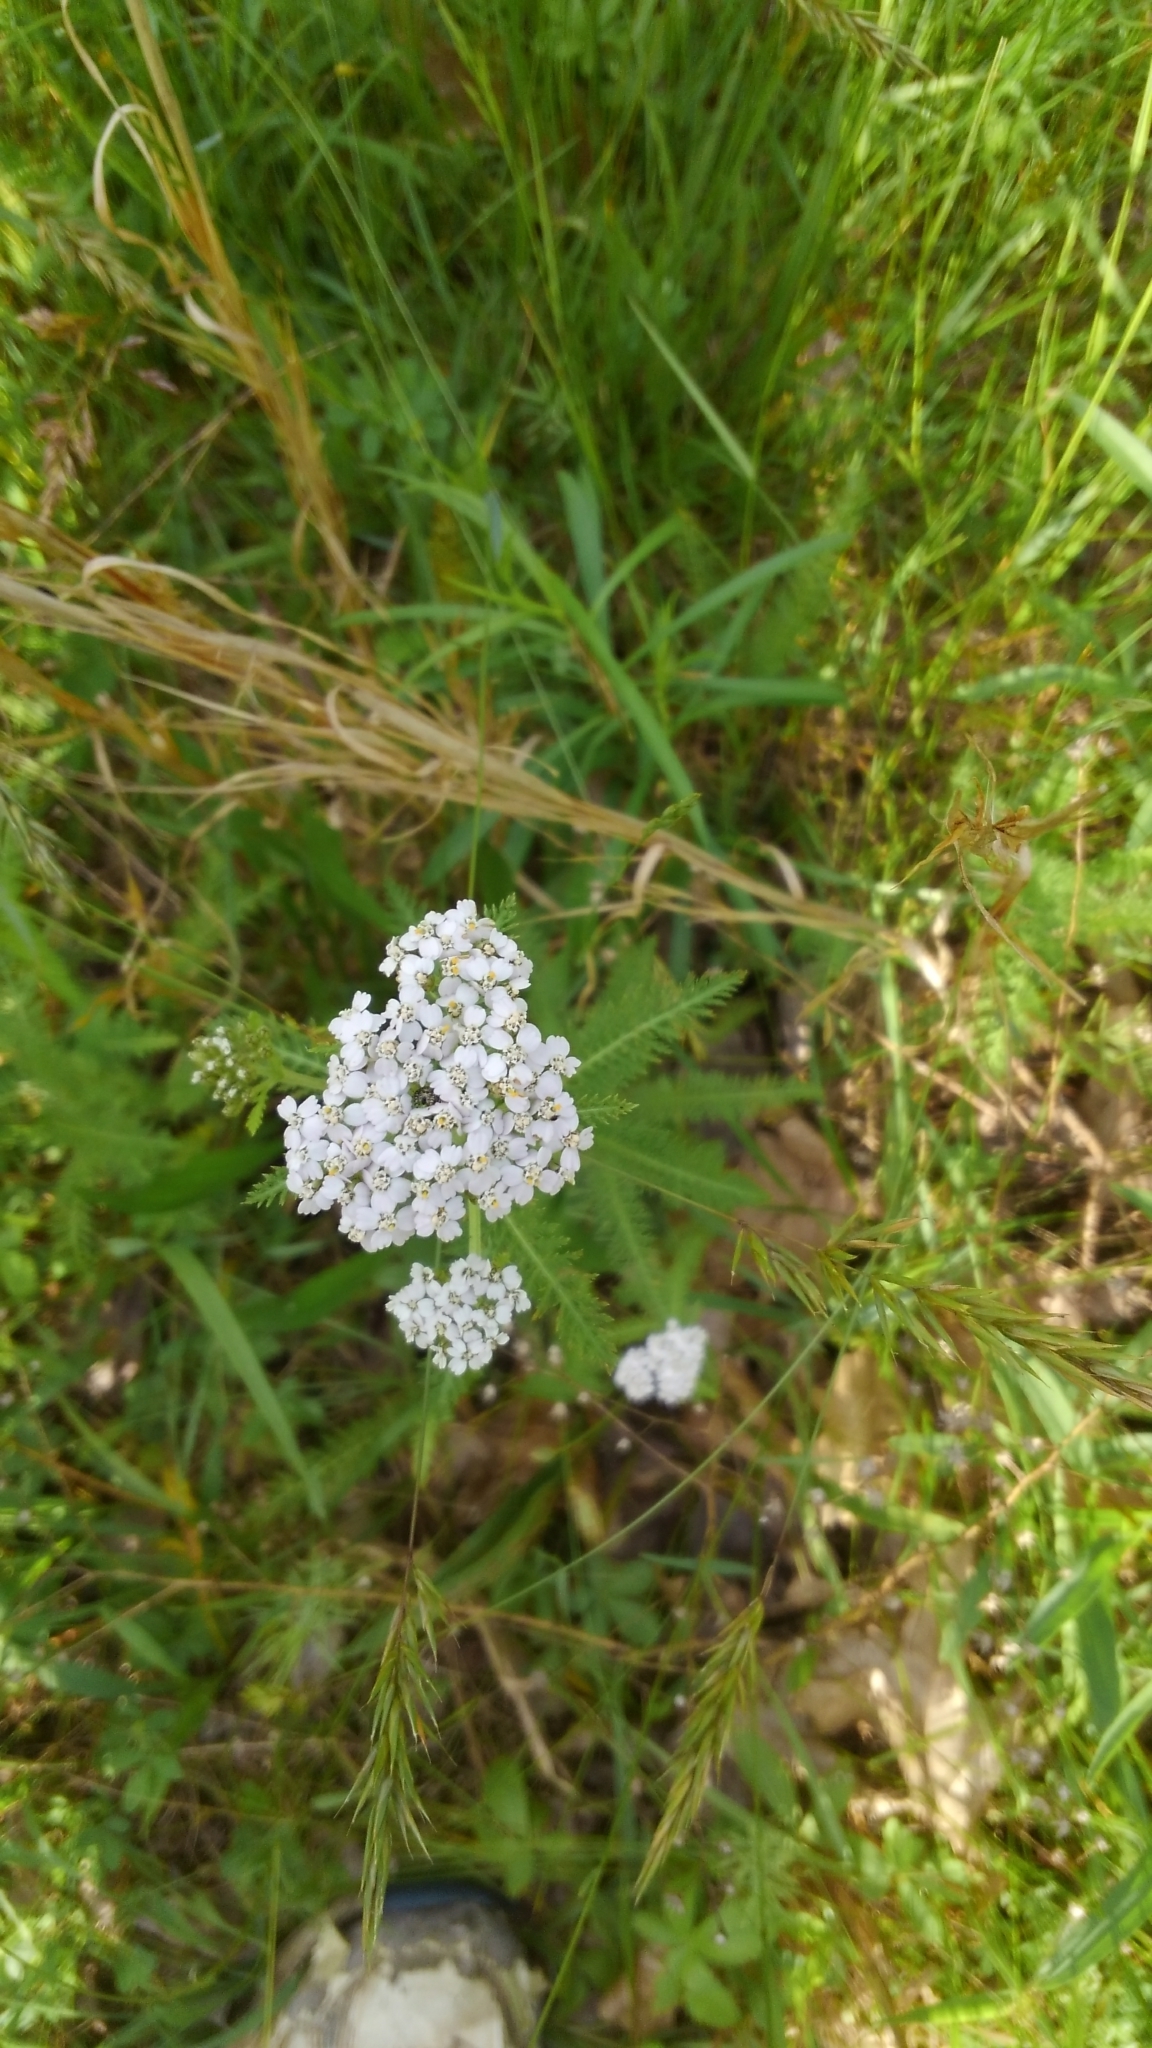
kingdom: Plantae
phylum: Tracheophyta
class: Magnoliopsida
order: Asterales
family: Asteraceae
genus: Achillea
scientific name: Achillea millefolium
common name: Yarrow
